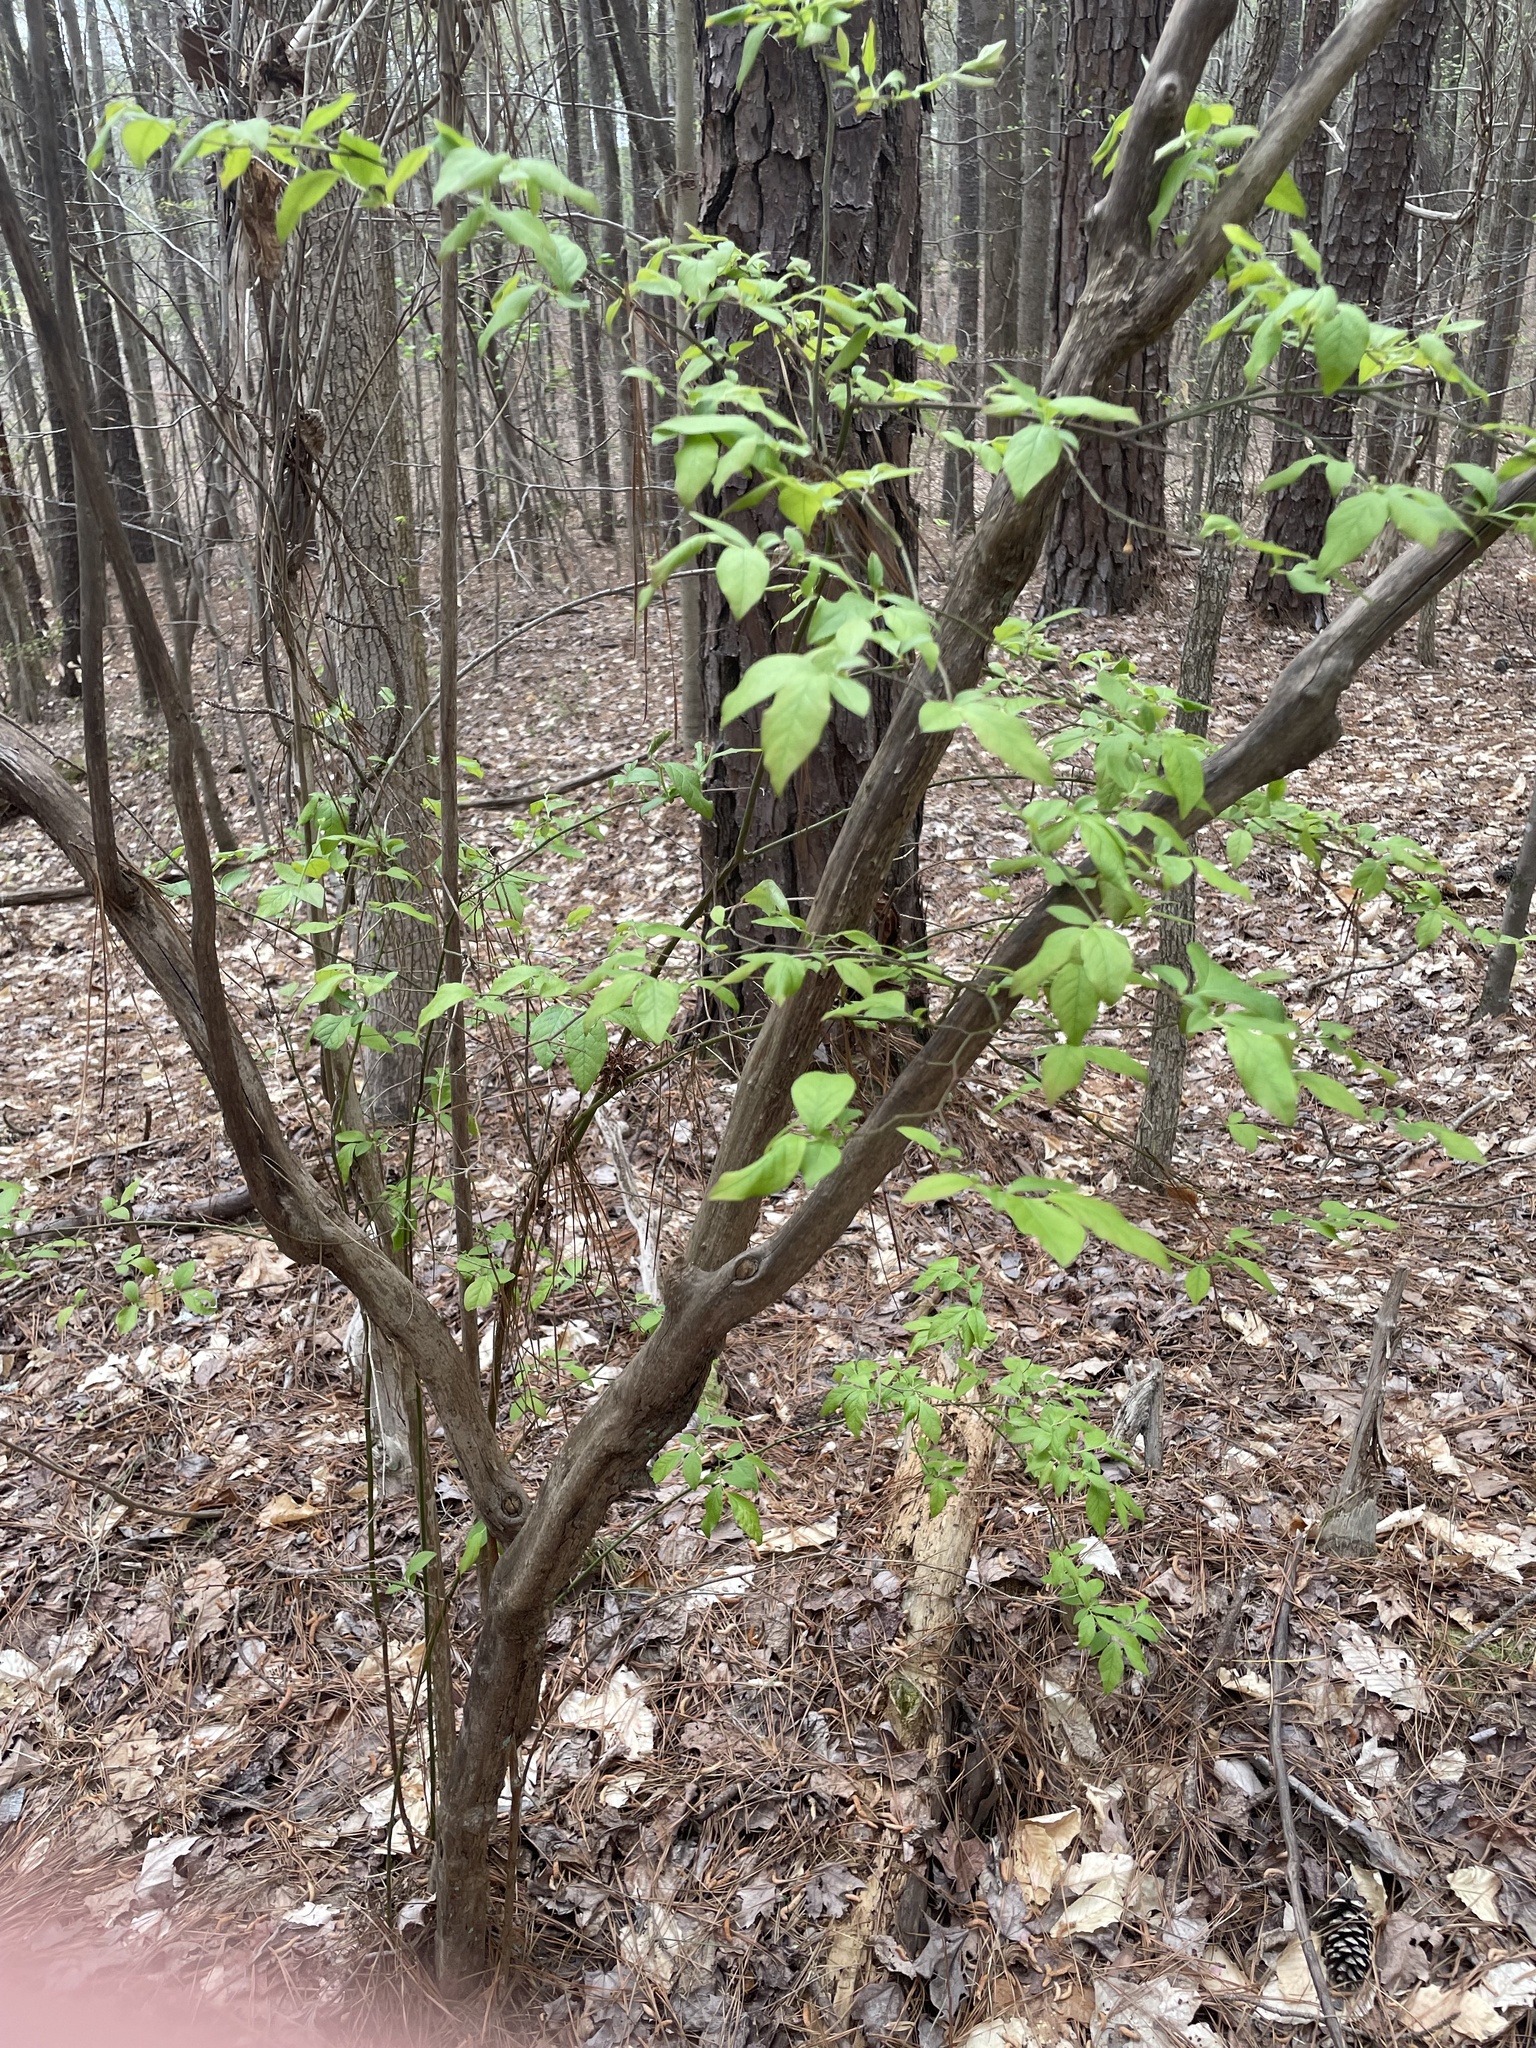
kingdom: Plantae
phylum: Tracheophyta
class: Magnoliopsida
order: Ericales
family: Ericaceae
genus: Vaccinium
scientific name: Vaccinium arboreum
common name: Farkleberry
